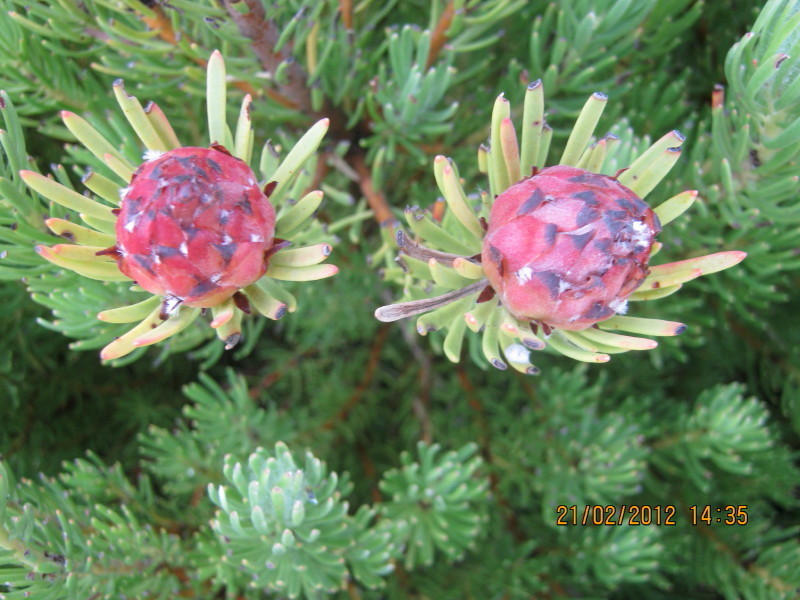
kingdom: Plantae
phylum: Tracheophyta
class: Magnoliopsida
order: Proteales
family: Proteaceae
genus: Leucadendron
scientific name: Leucadendron dregei
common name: Summit conebush
